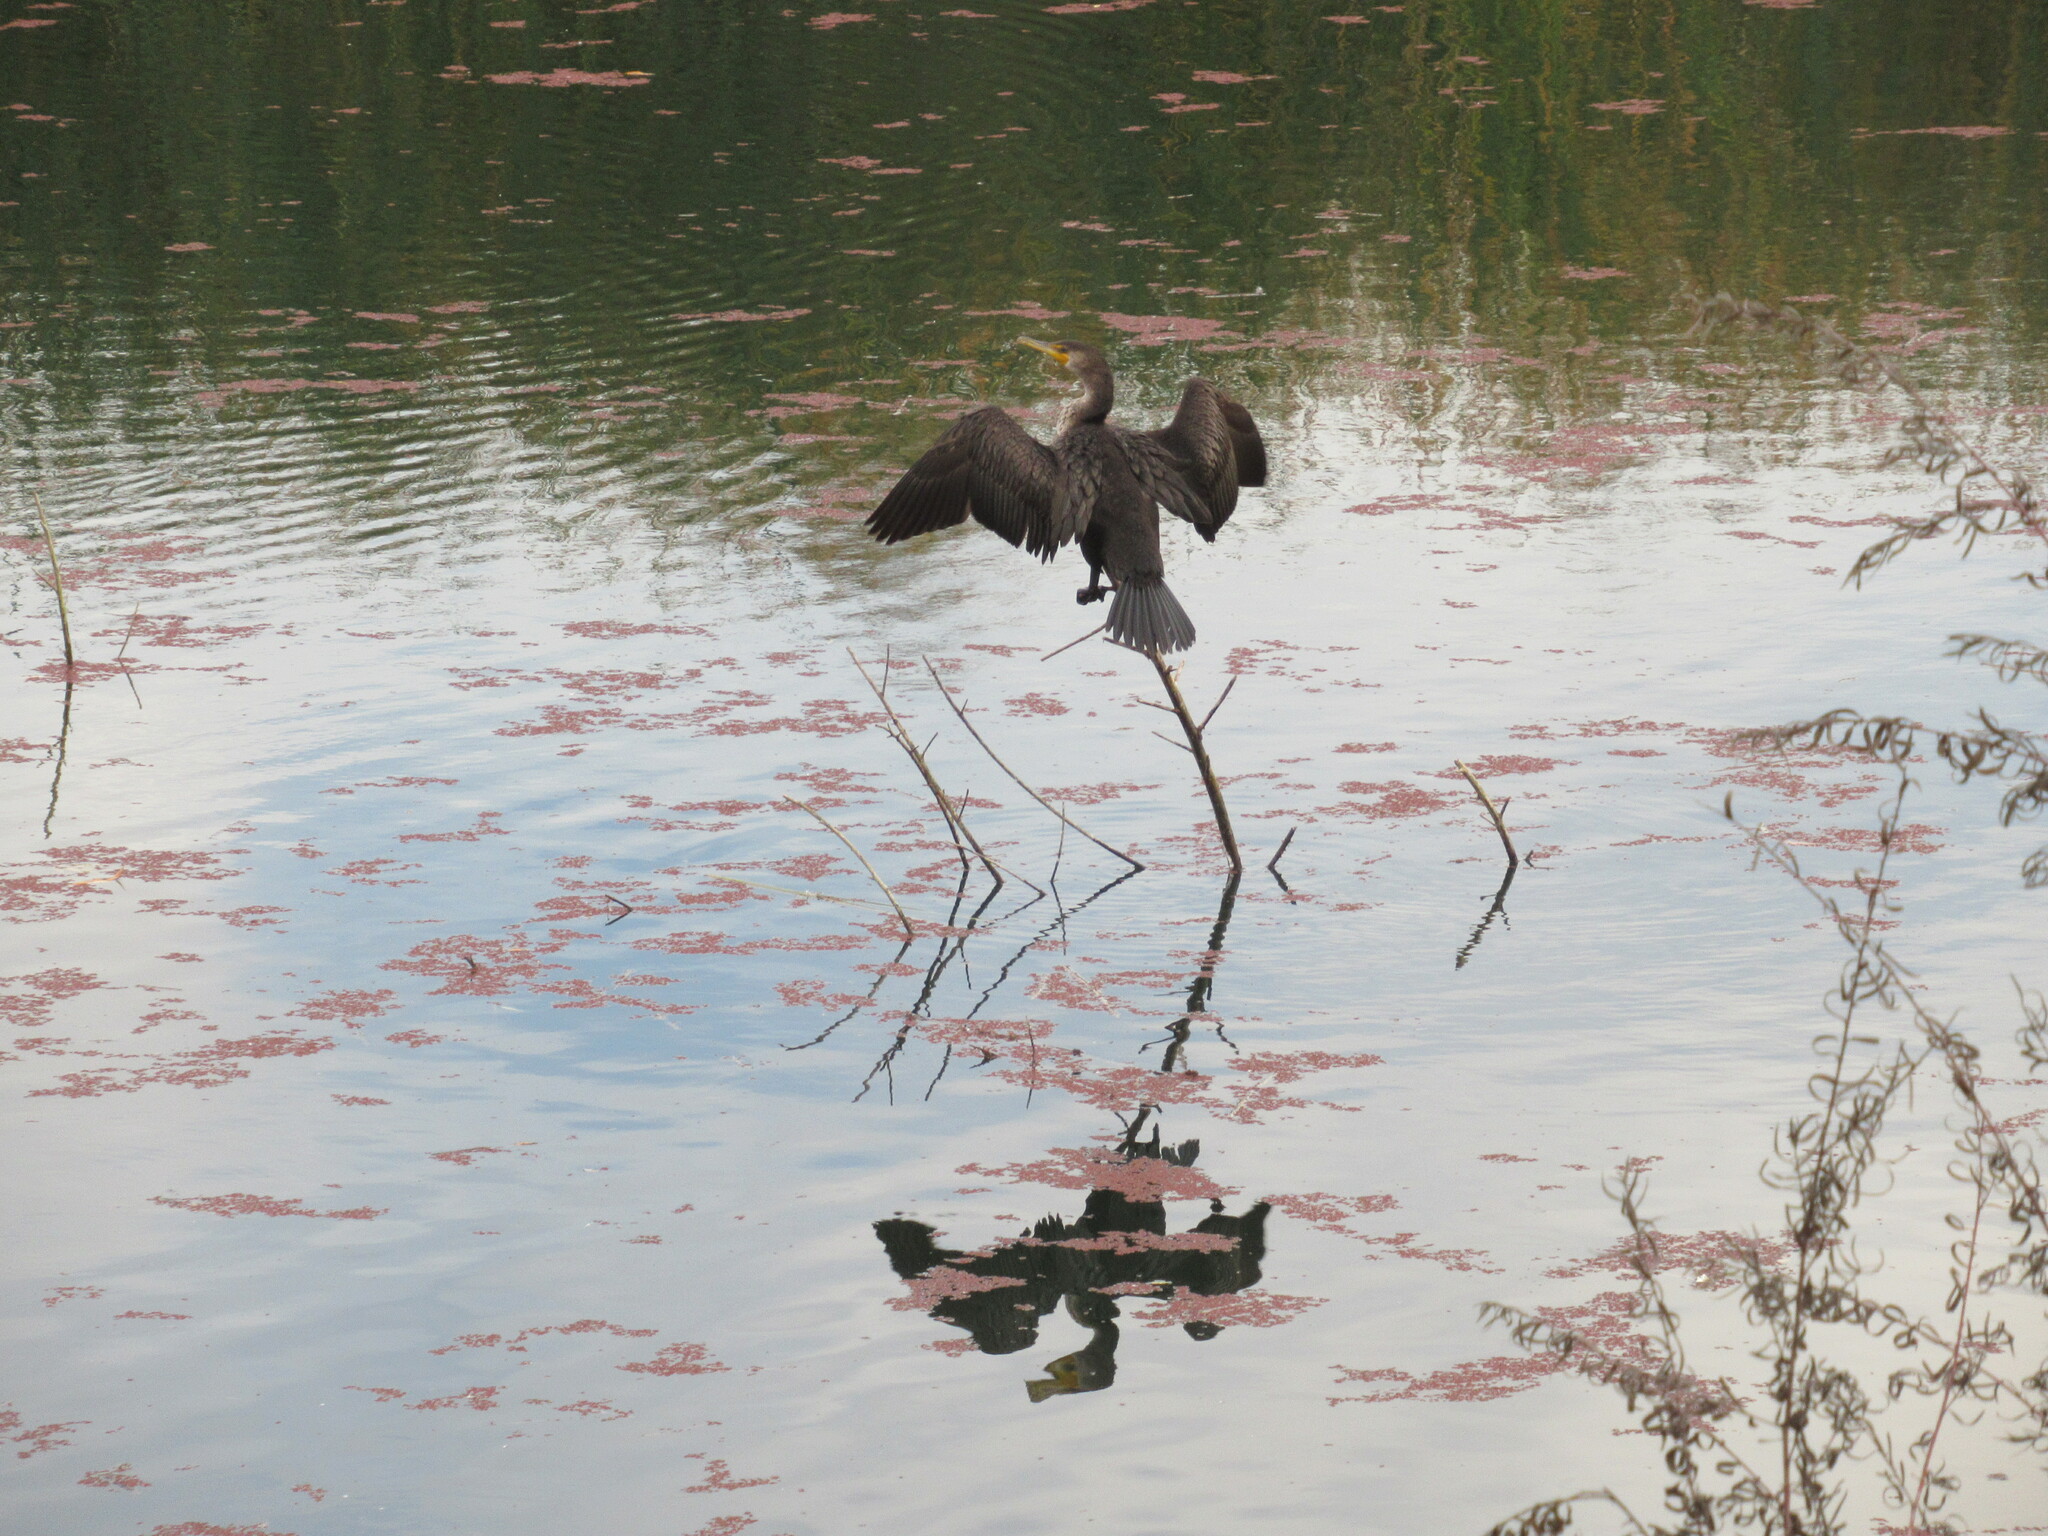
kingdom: Animalia
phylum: Chordata
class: Aves
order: Suliformes
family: Phalacrocoracidae
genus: Phalacrocorax
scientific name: Phalacrocorax auritus
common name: Double-crested cormorant
